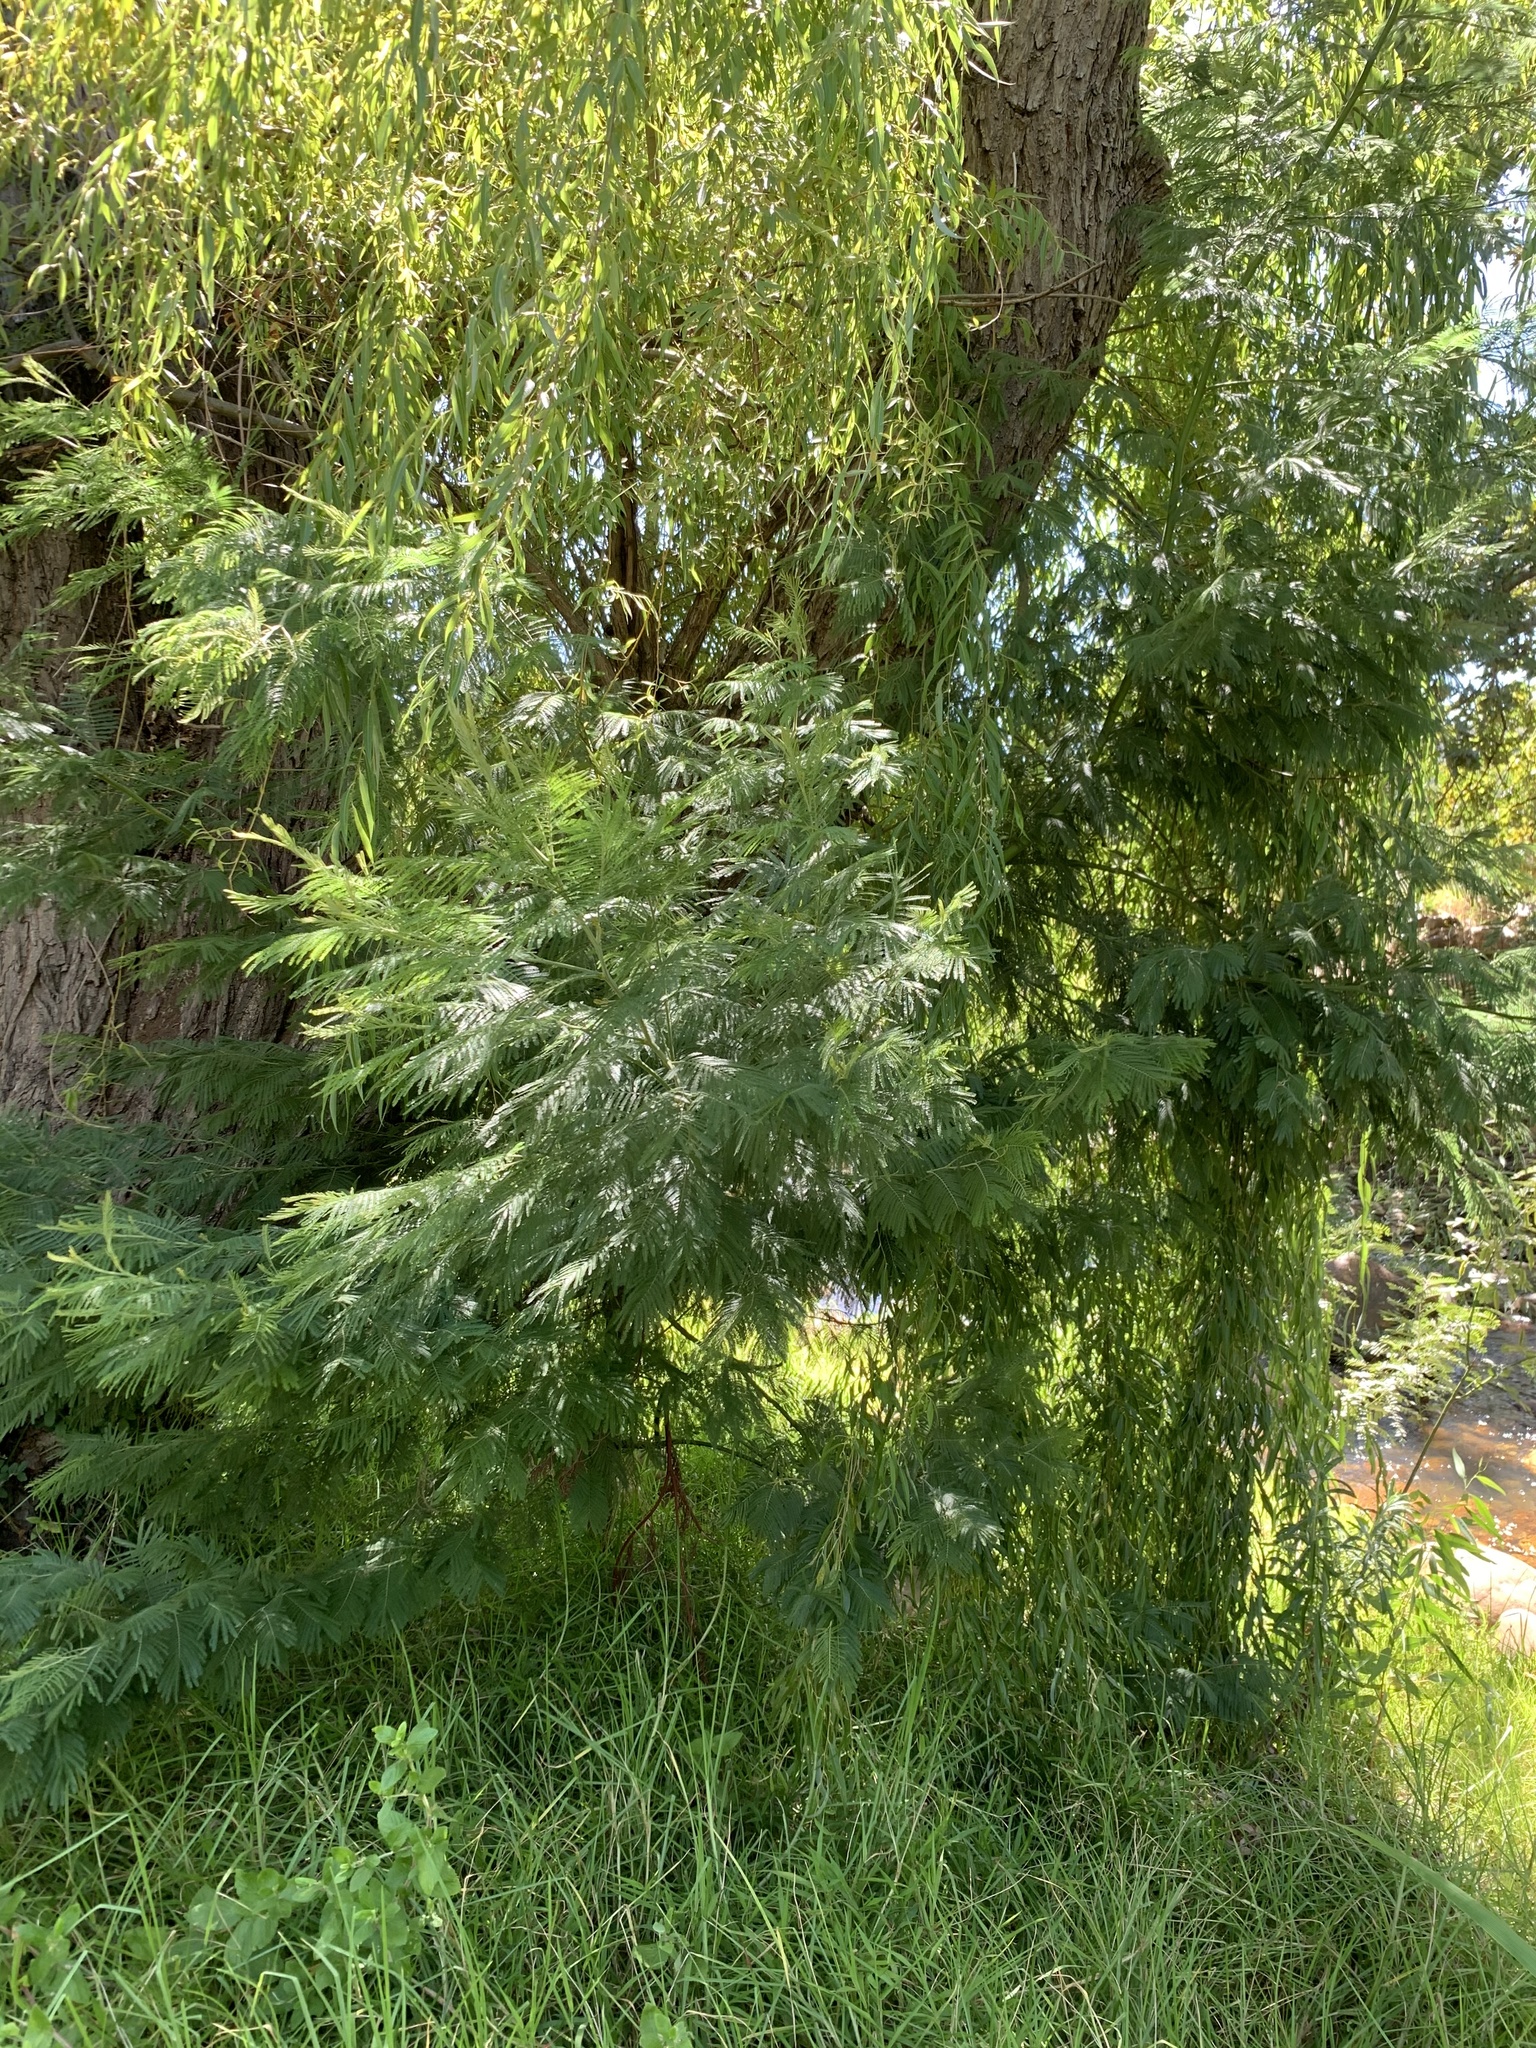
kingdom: Plantae
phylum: Tracheophyta
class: Magnoliopsida
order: Fabales
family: Fabaceae
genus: Acacia
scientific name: Acacia mearnsii
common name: Black wattle
